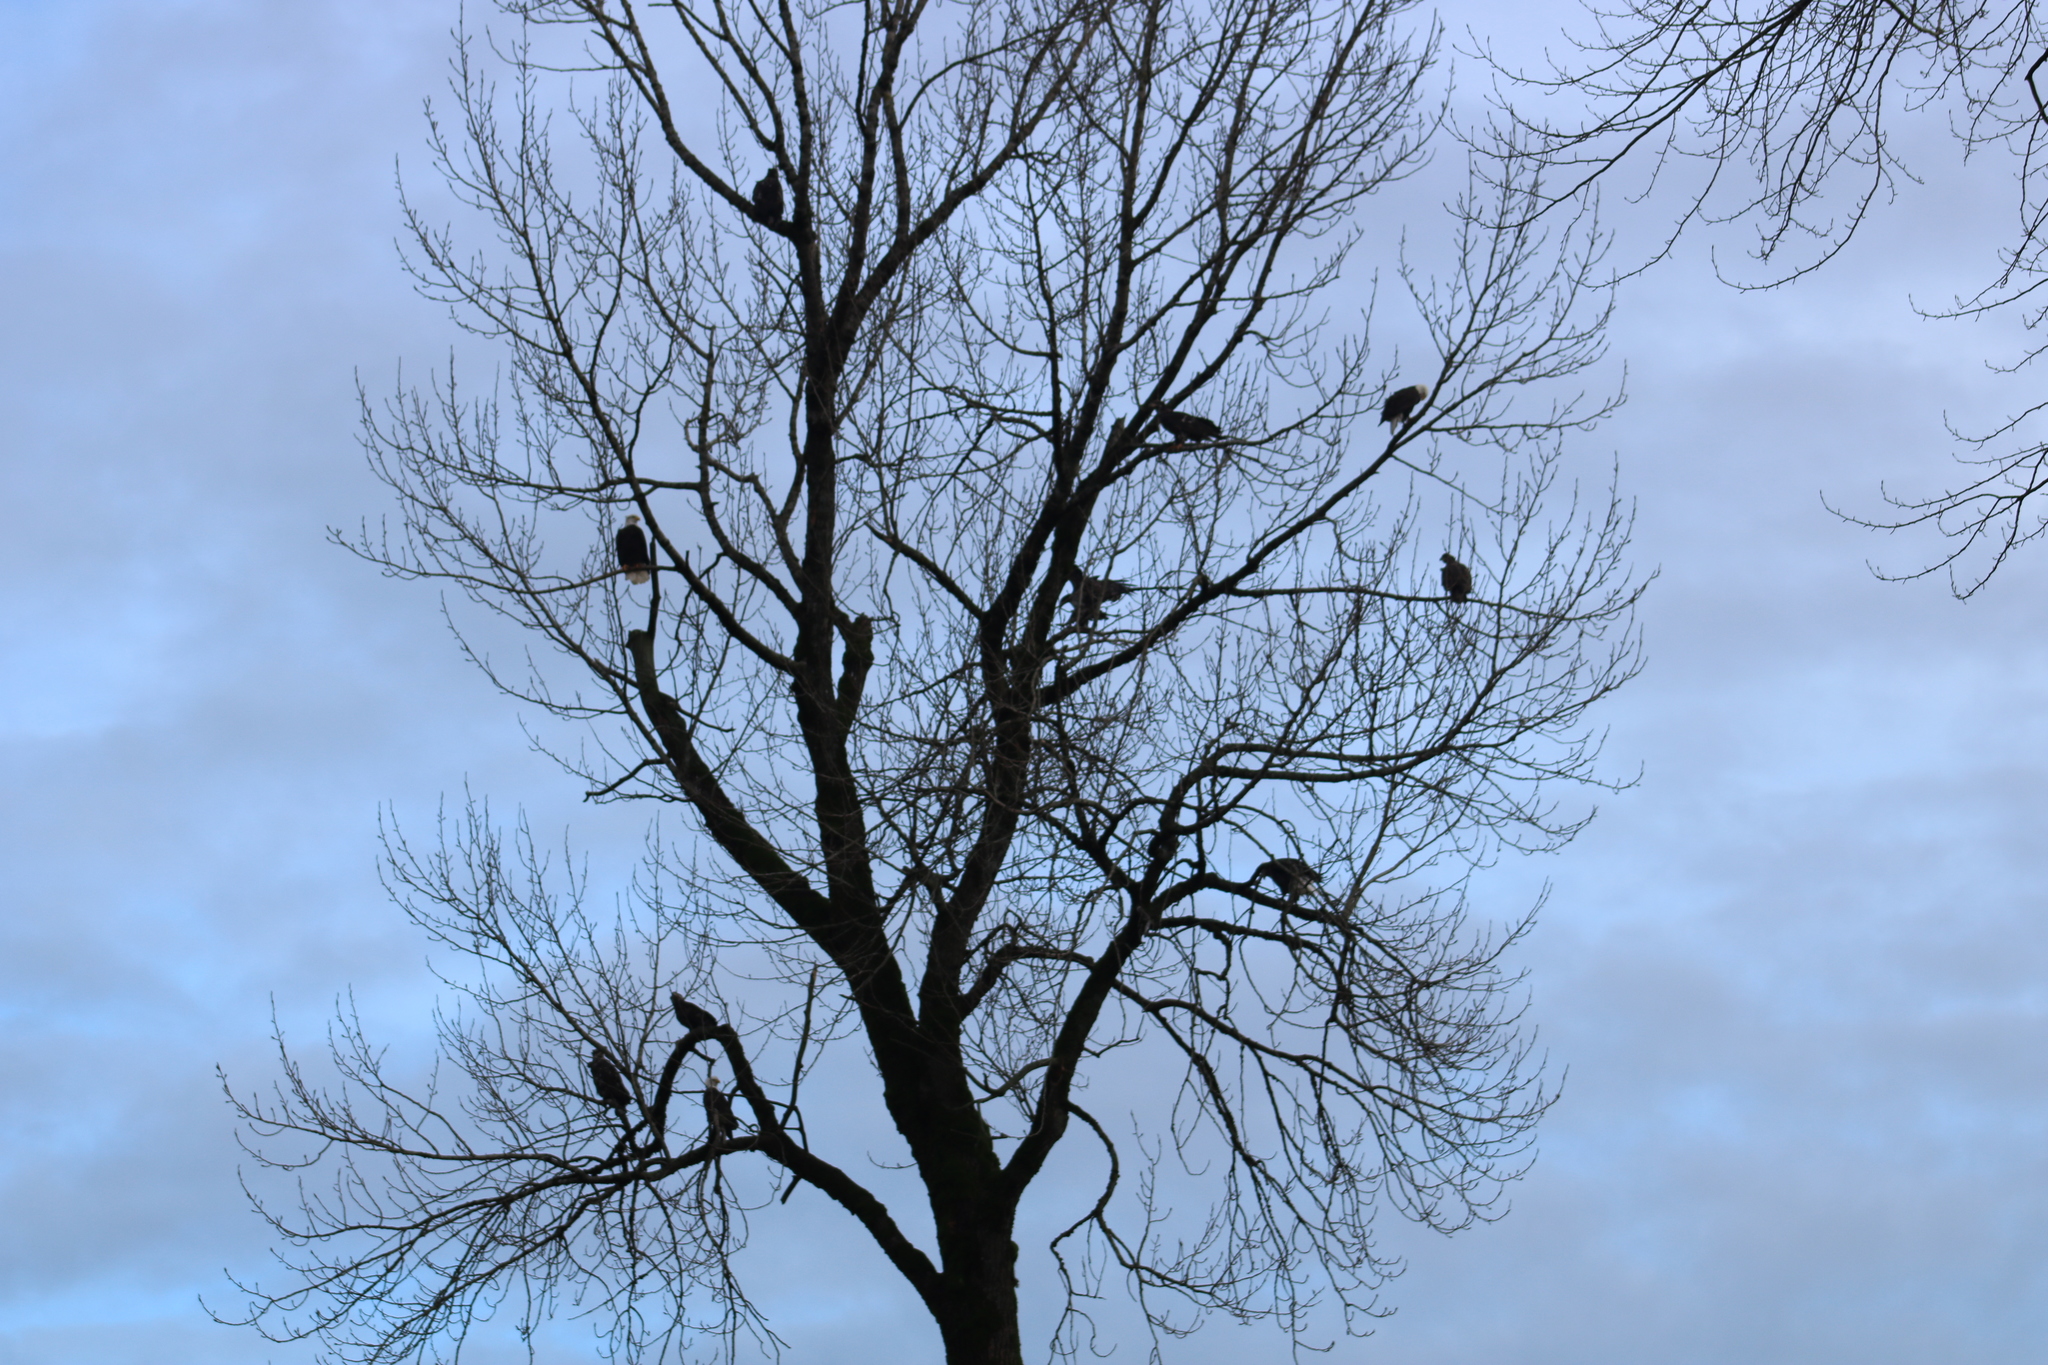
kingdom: Animalia
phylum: Chordata
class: Aves
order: Accipitriformes
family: Accipitridae
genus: Haliaeetus
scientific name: Haliaeetus leucocephalus
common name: Bald eagle
